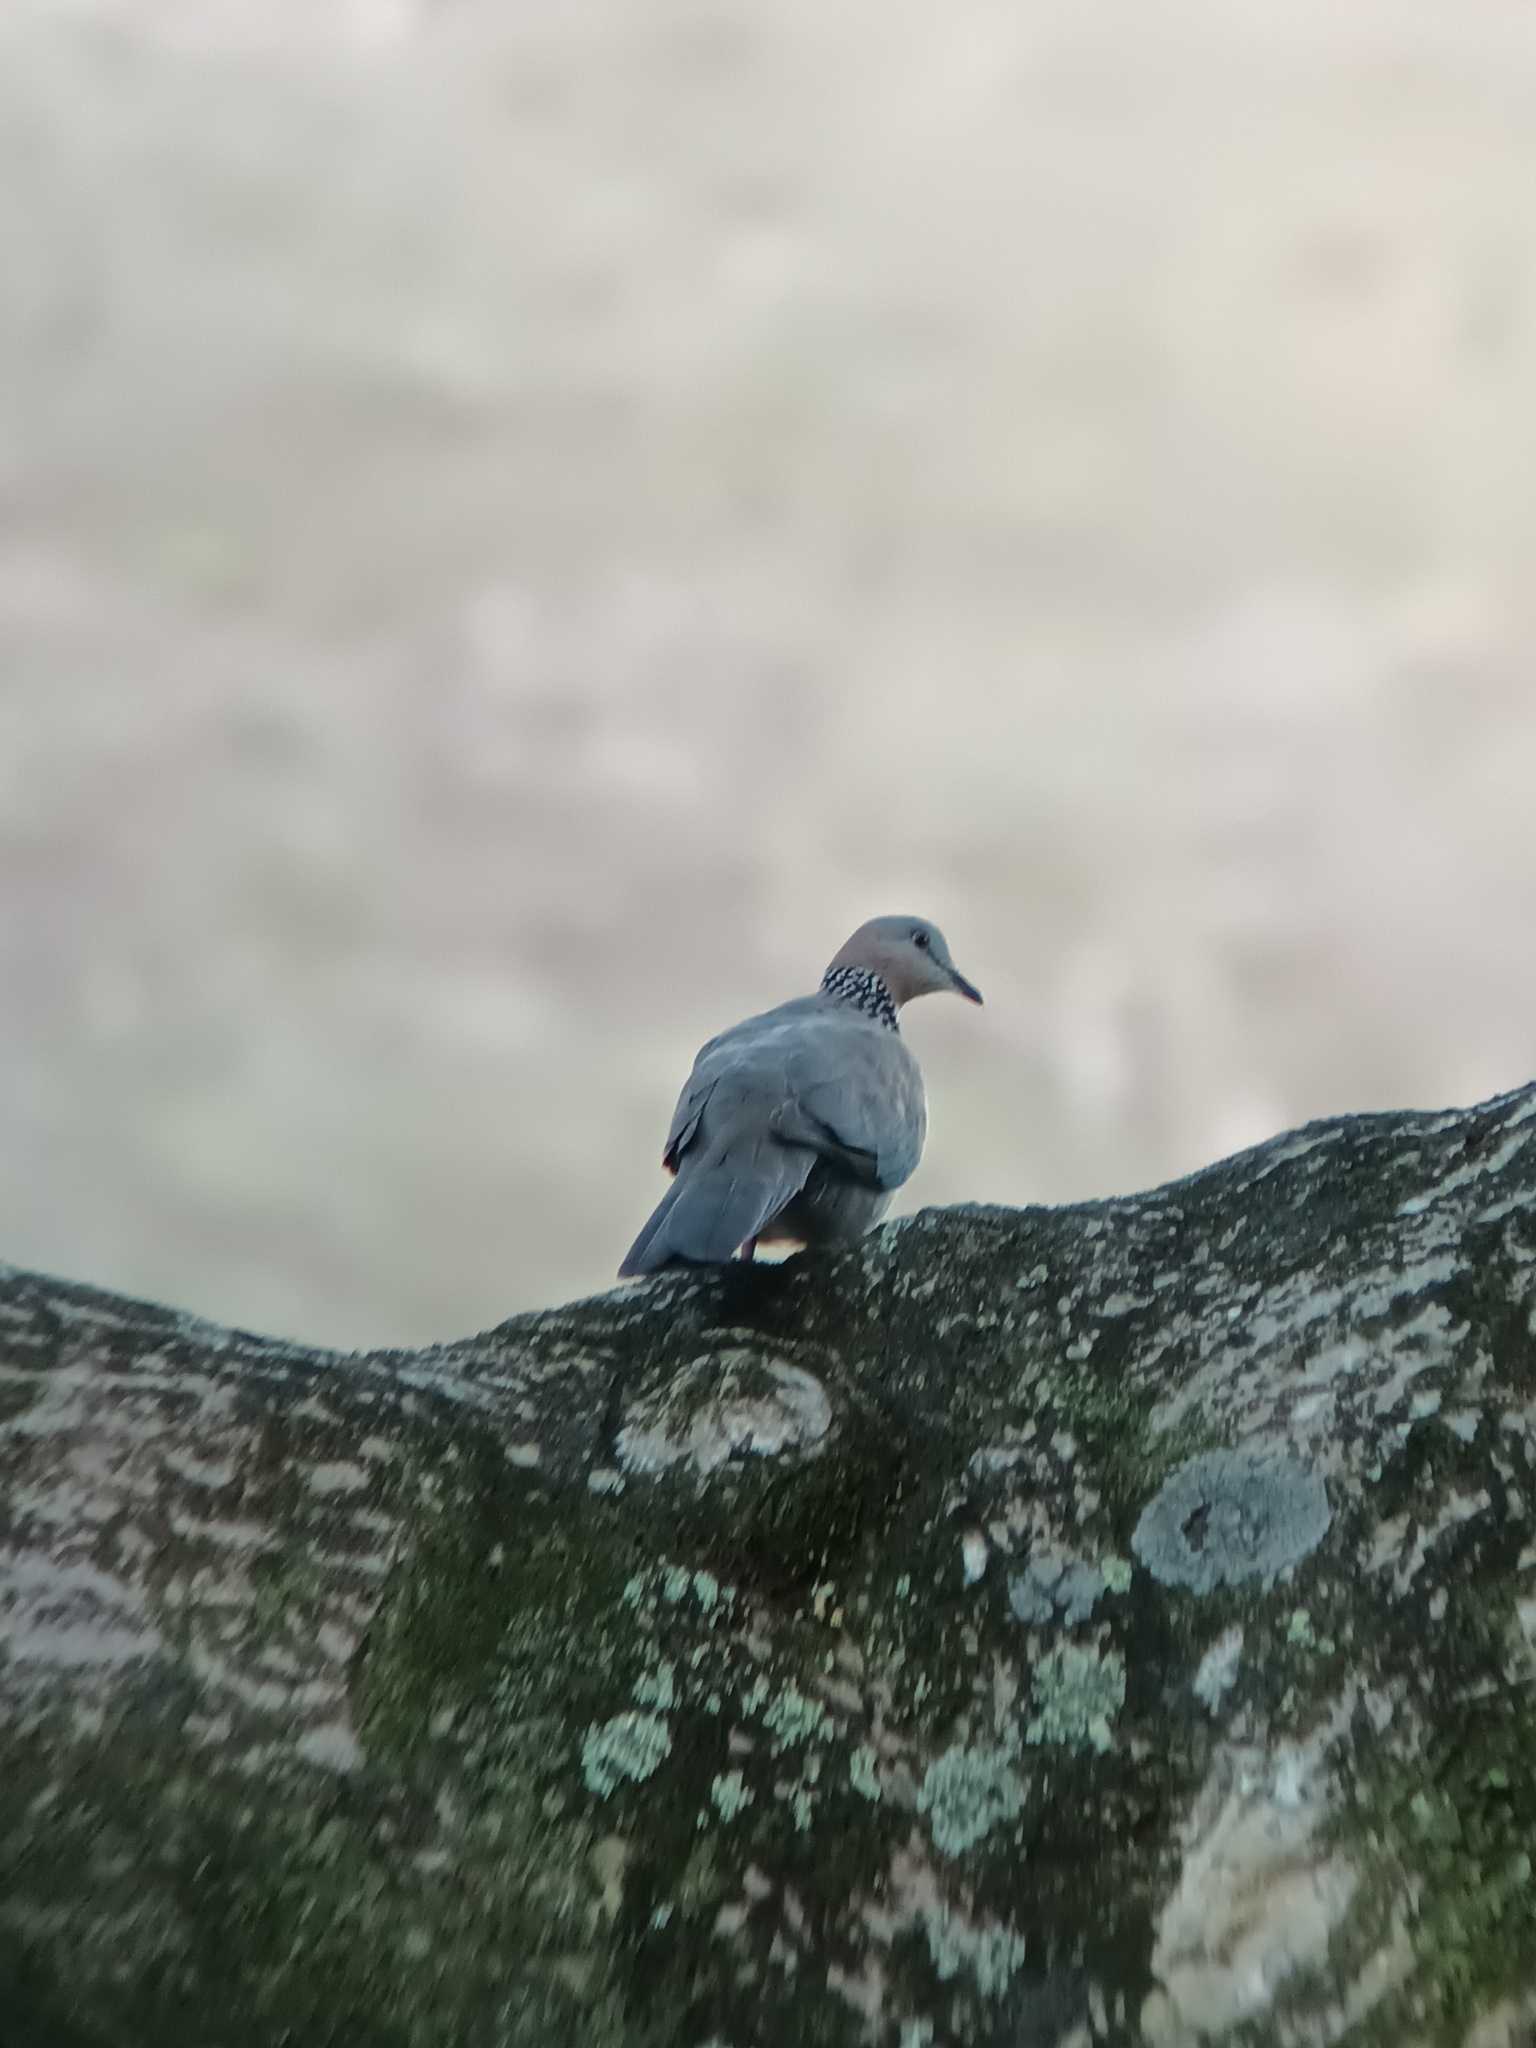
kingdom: Animalia
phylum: Chordata
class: Aves
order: Columbiformes
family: Columbidae
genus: Spilopelia
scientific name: Spilopelia chinensis
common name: Spotted dove
